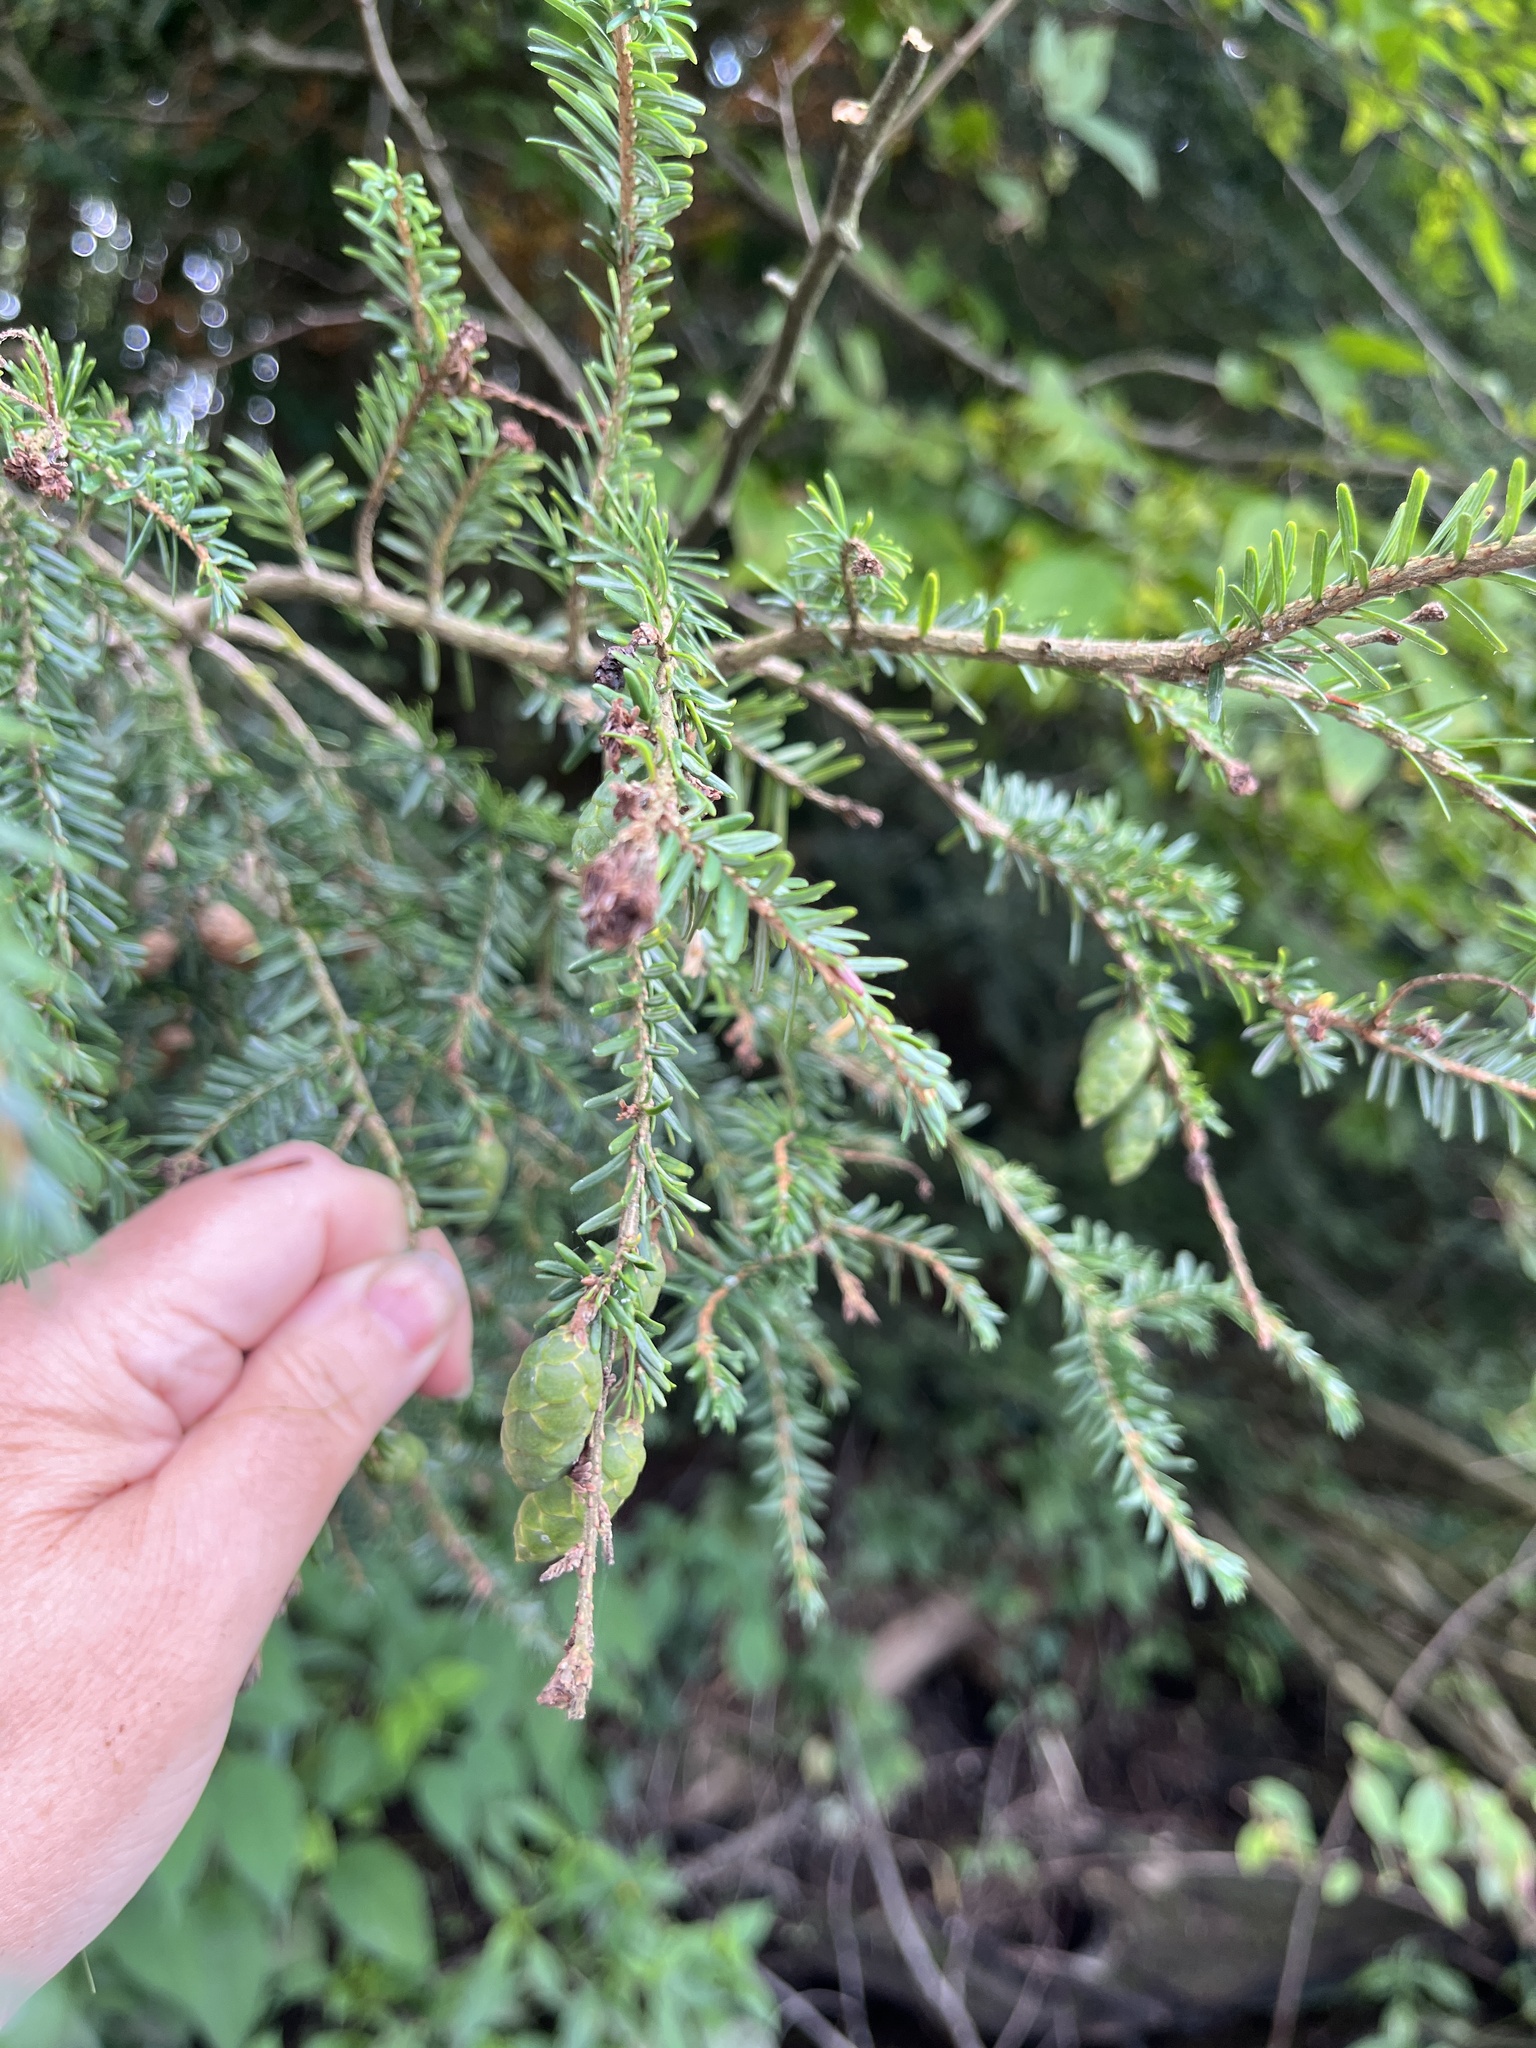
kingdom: Plantae
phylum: Tracheophyta
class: Pinopsida
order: Pinales
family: Pinaceae
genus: Tsuga
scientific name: Tsuga canadensis
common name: Eastern hemlock
